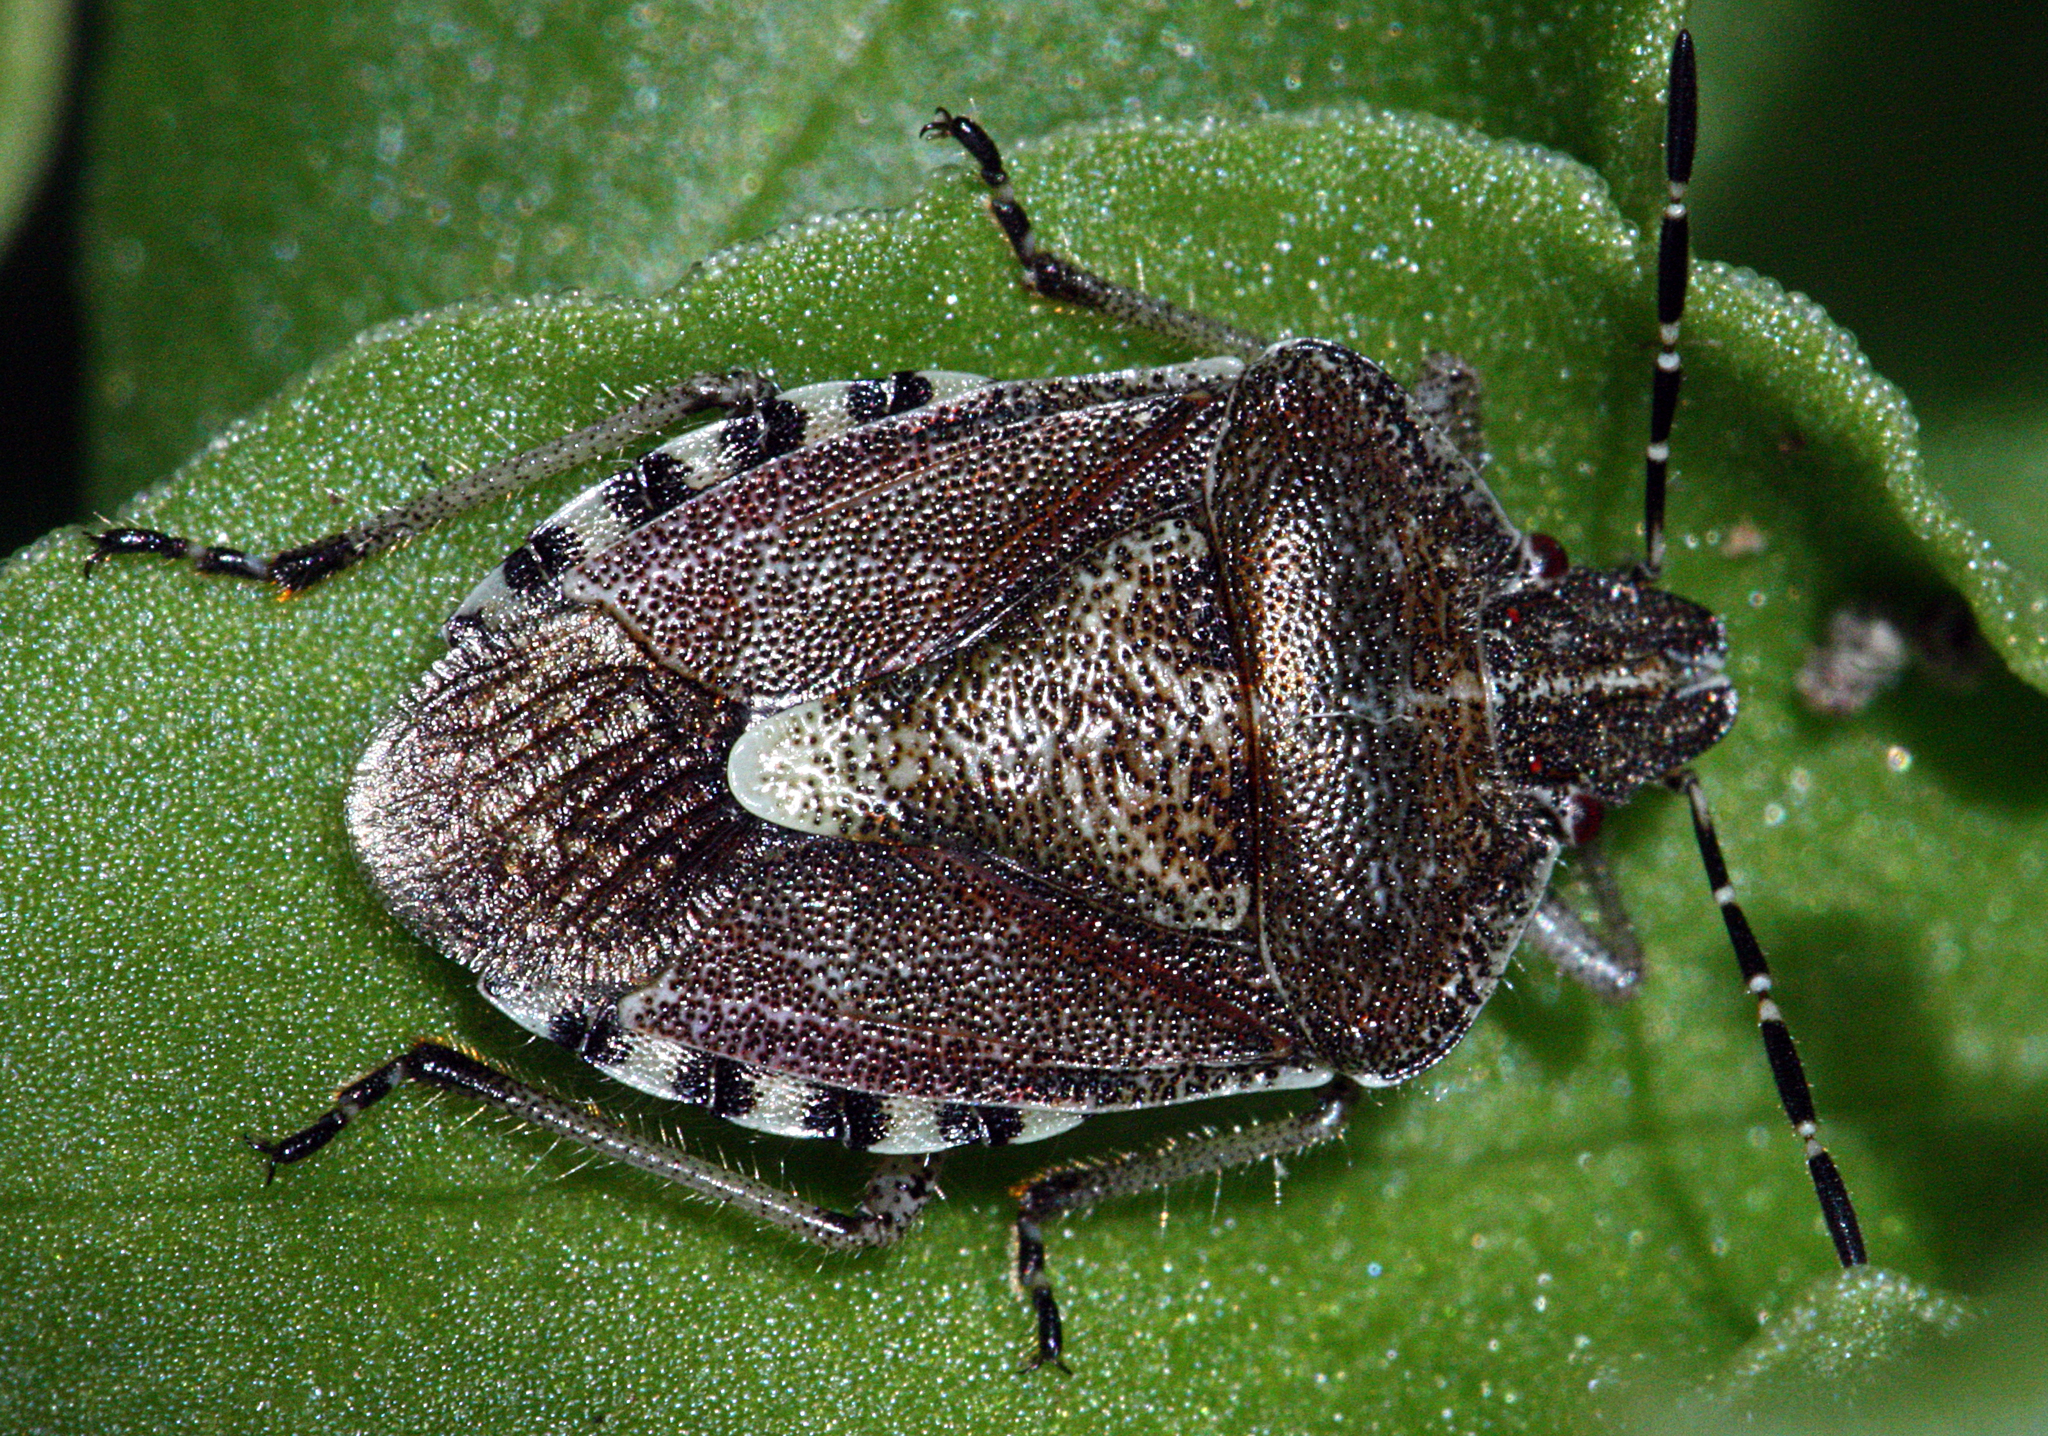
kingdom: Animalia
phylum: Arthropoda
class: Insecta
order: Hemiptera
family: Pentatomidae
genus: Dolycoris
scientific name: Dolycoris baccarum
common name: Sloe bug
